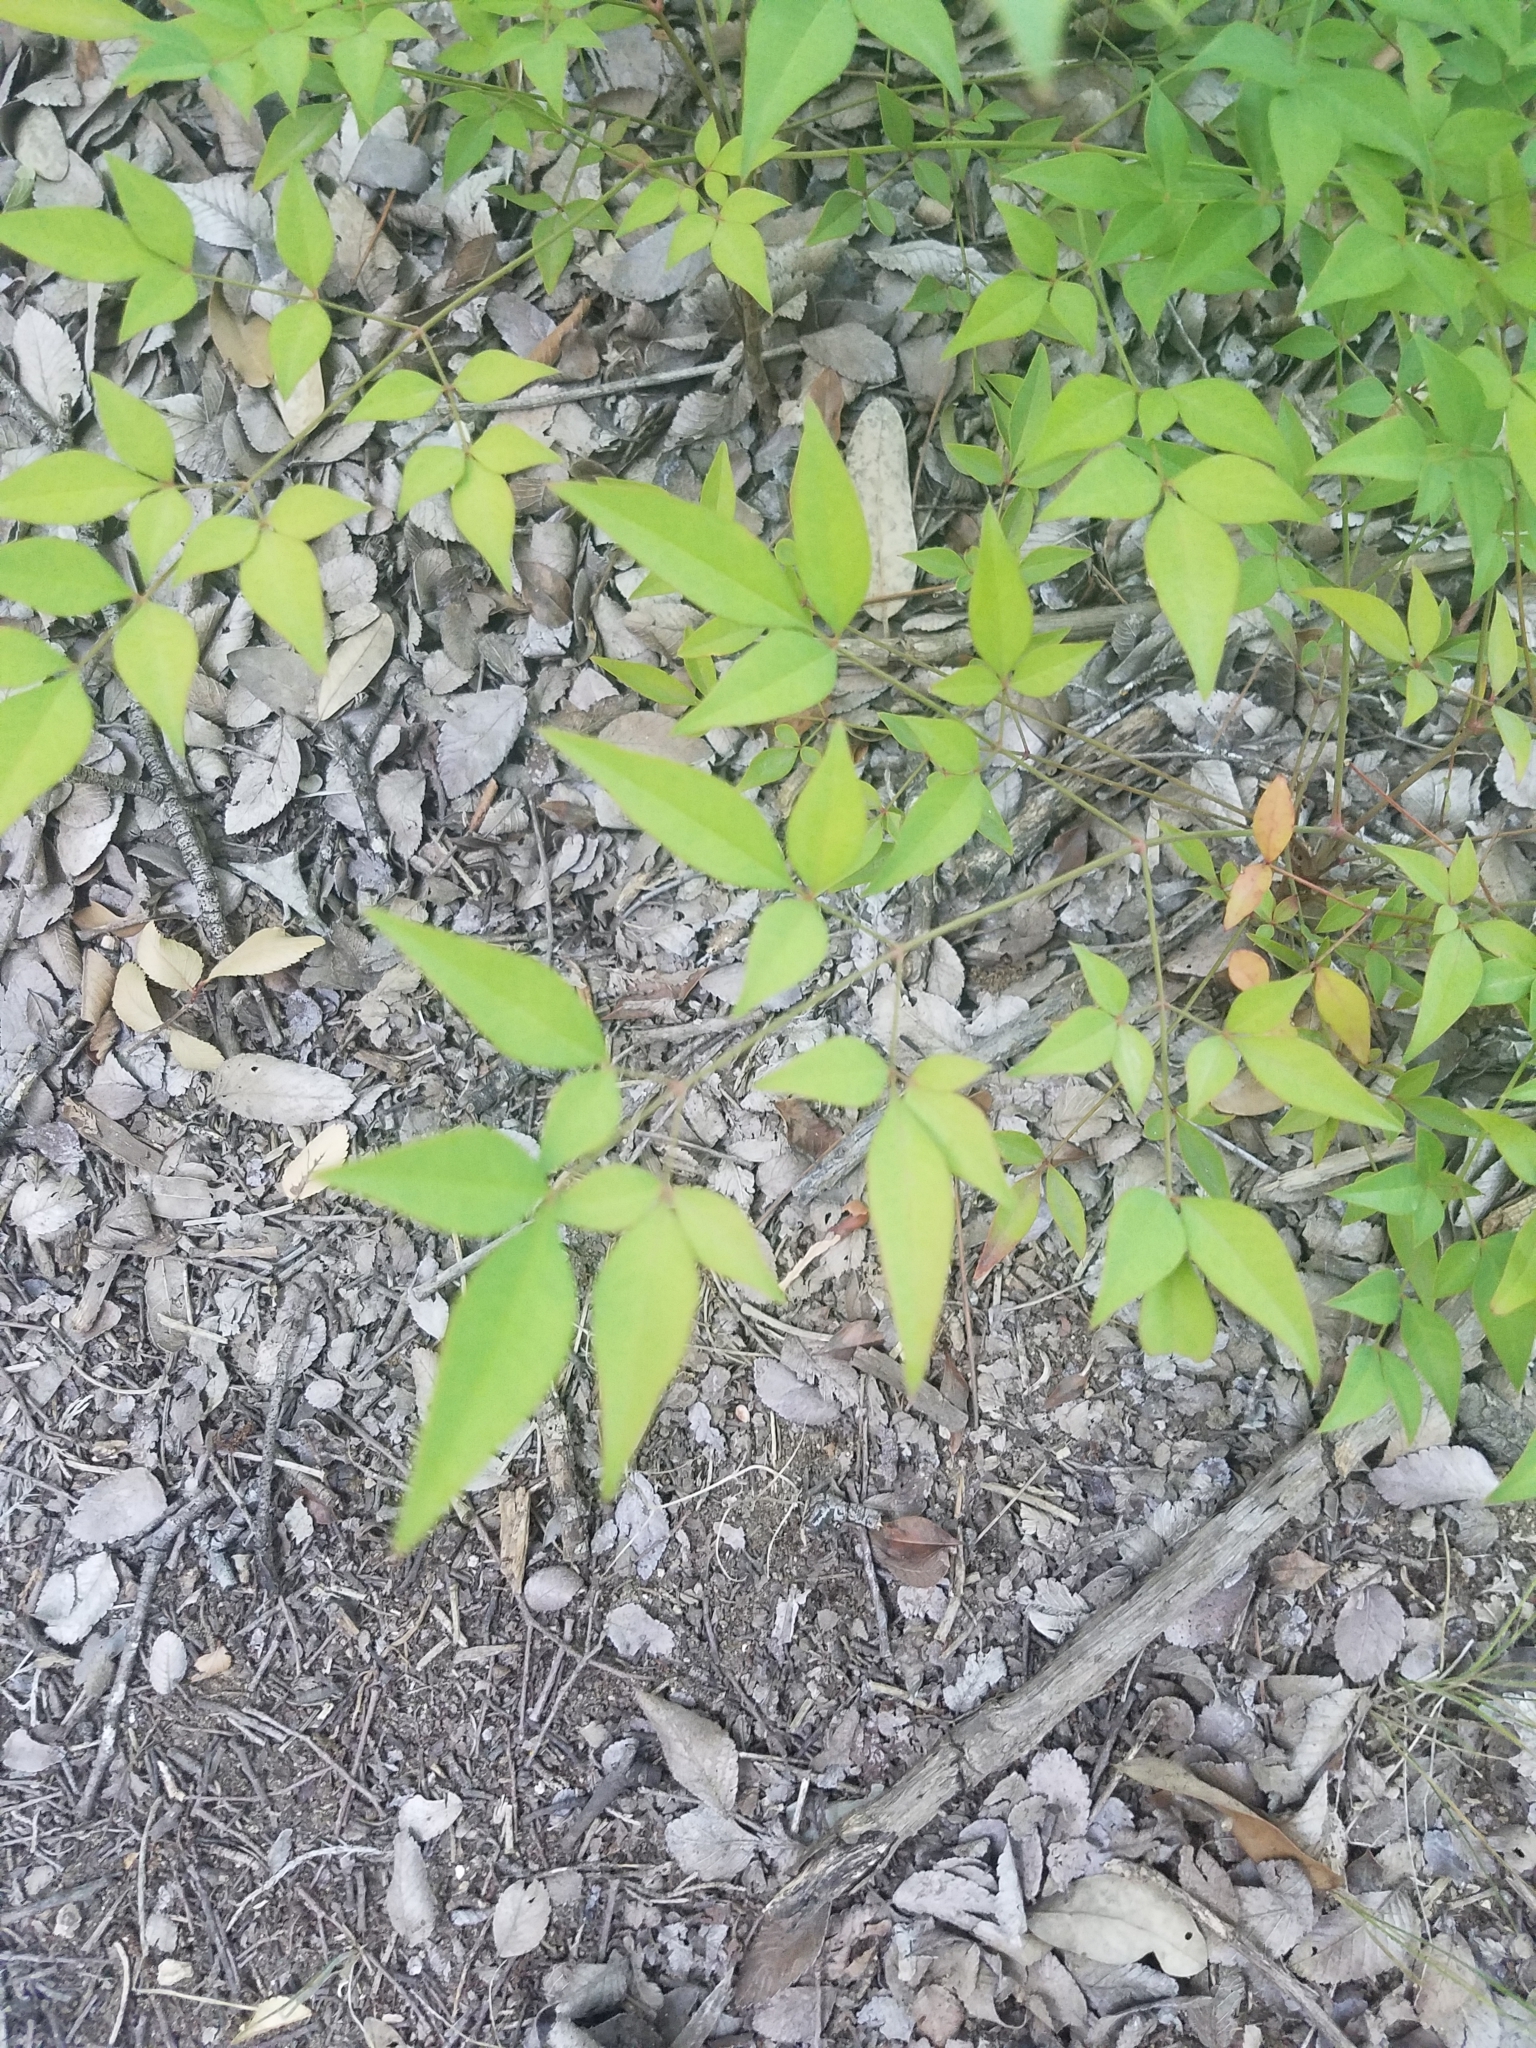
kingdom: Plantae
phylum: Tracheophyta
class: Magnoliopsida
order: Ranunculales
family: Berberidaceae
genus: Nandina
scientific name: Nandina domestica
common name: Sacred bamboo
